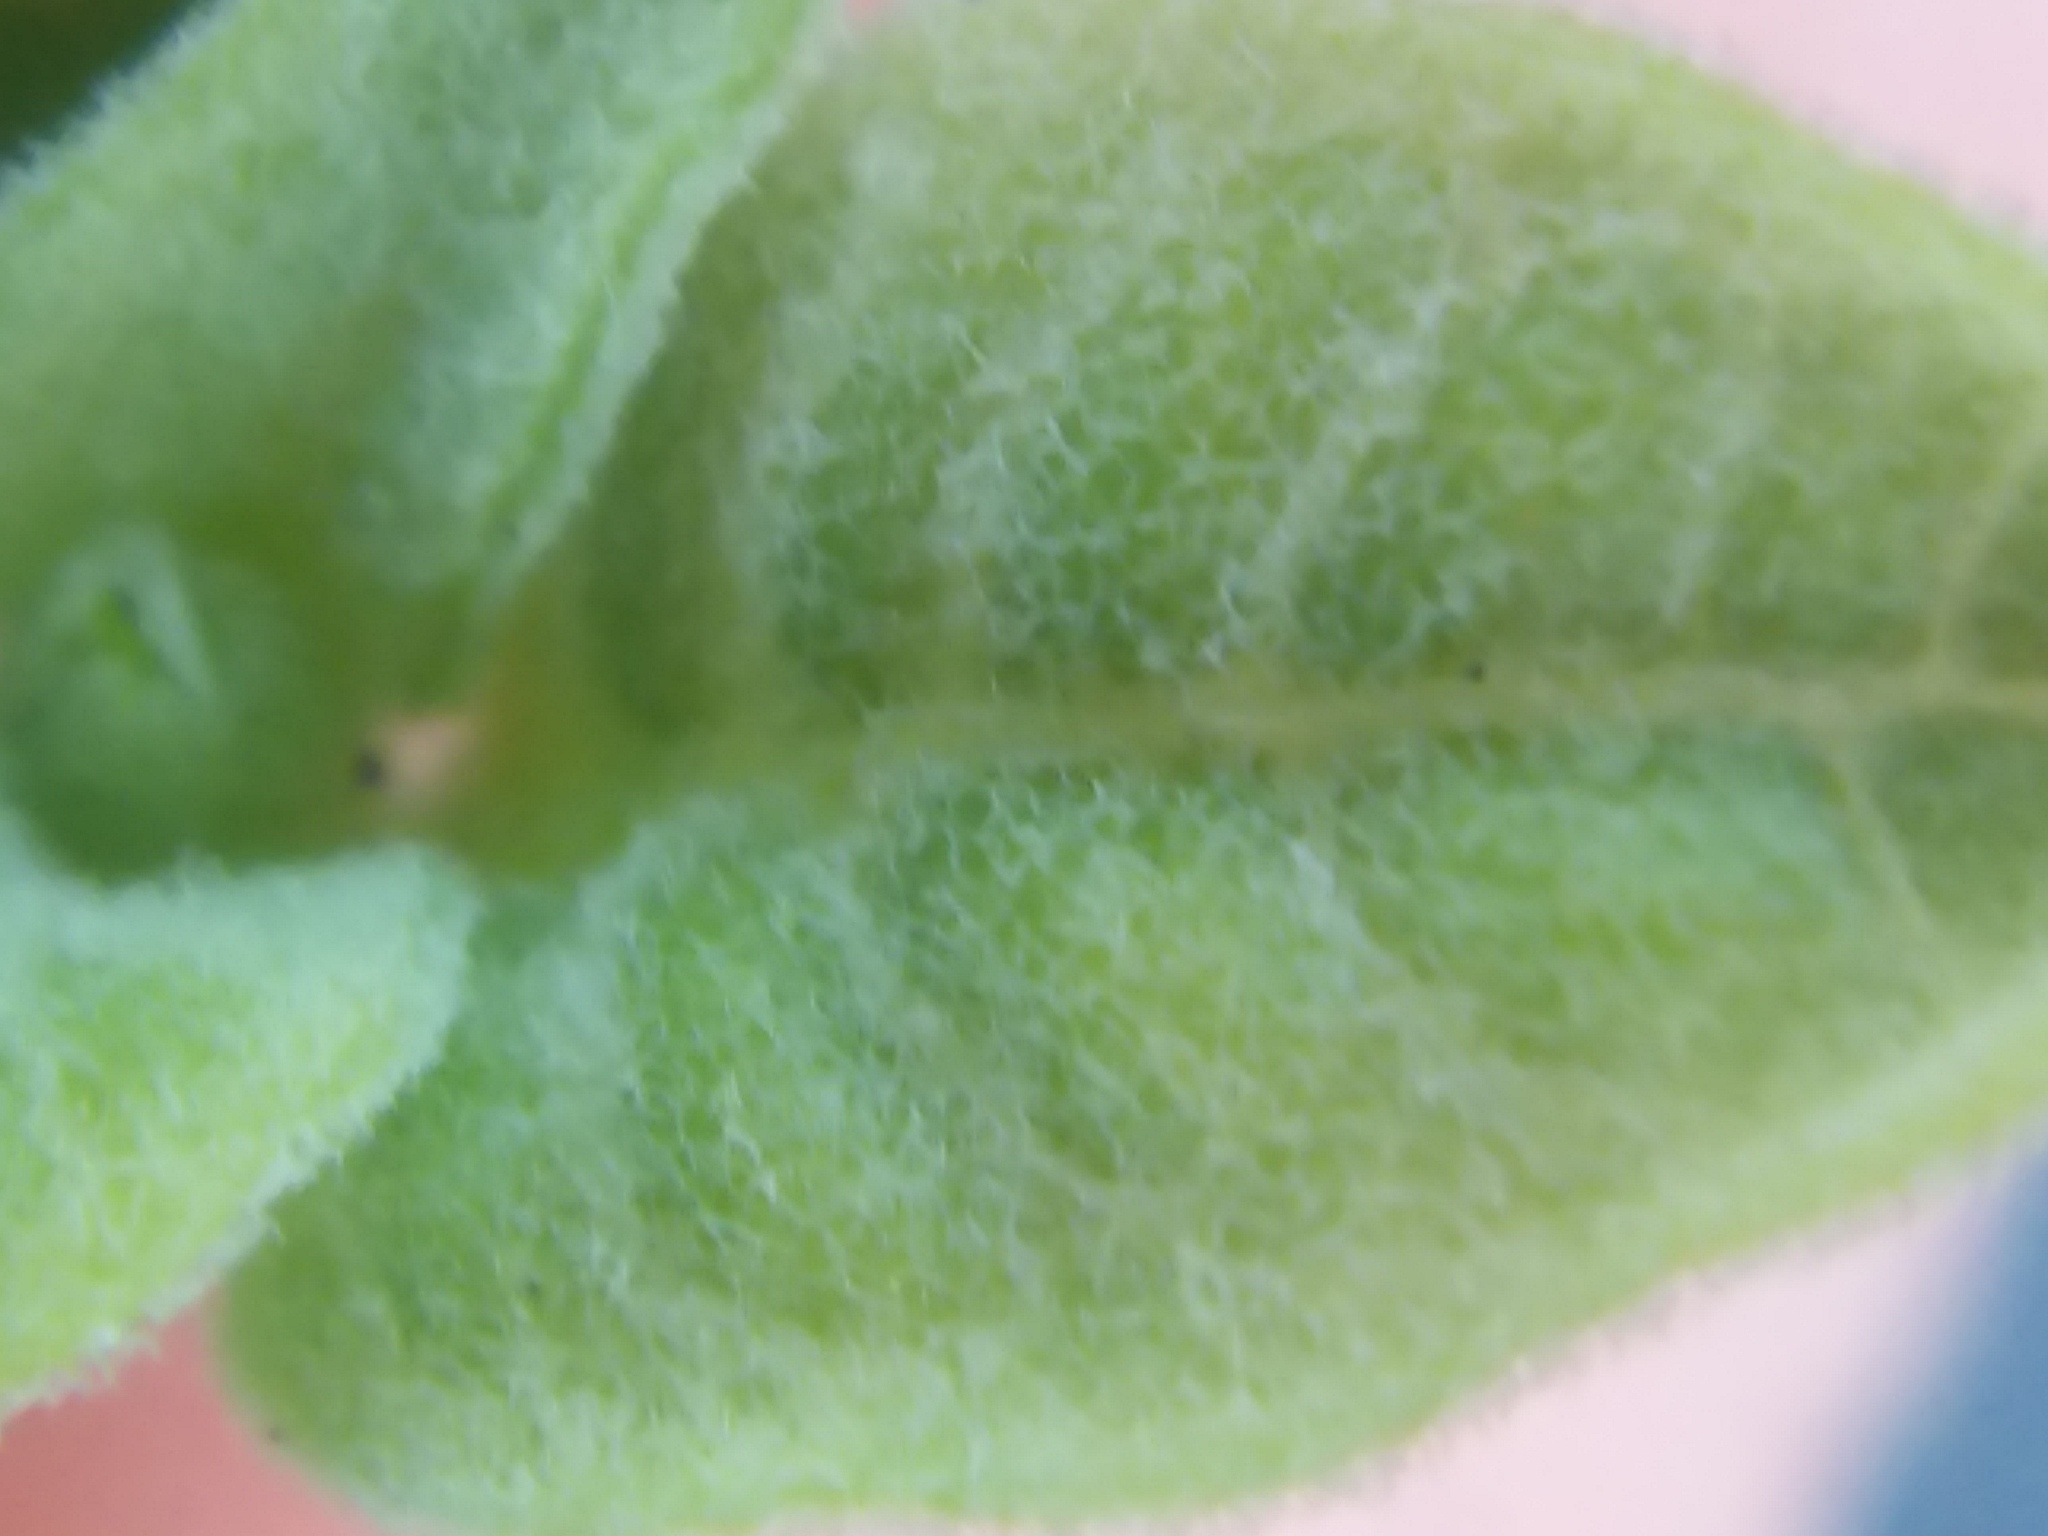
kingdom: Plantae
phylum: Tracheophyta
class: Magnoliopsida
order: Solanales
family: Solanaceae
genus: Physalis
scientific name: Physalis walteri
